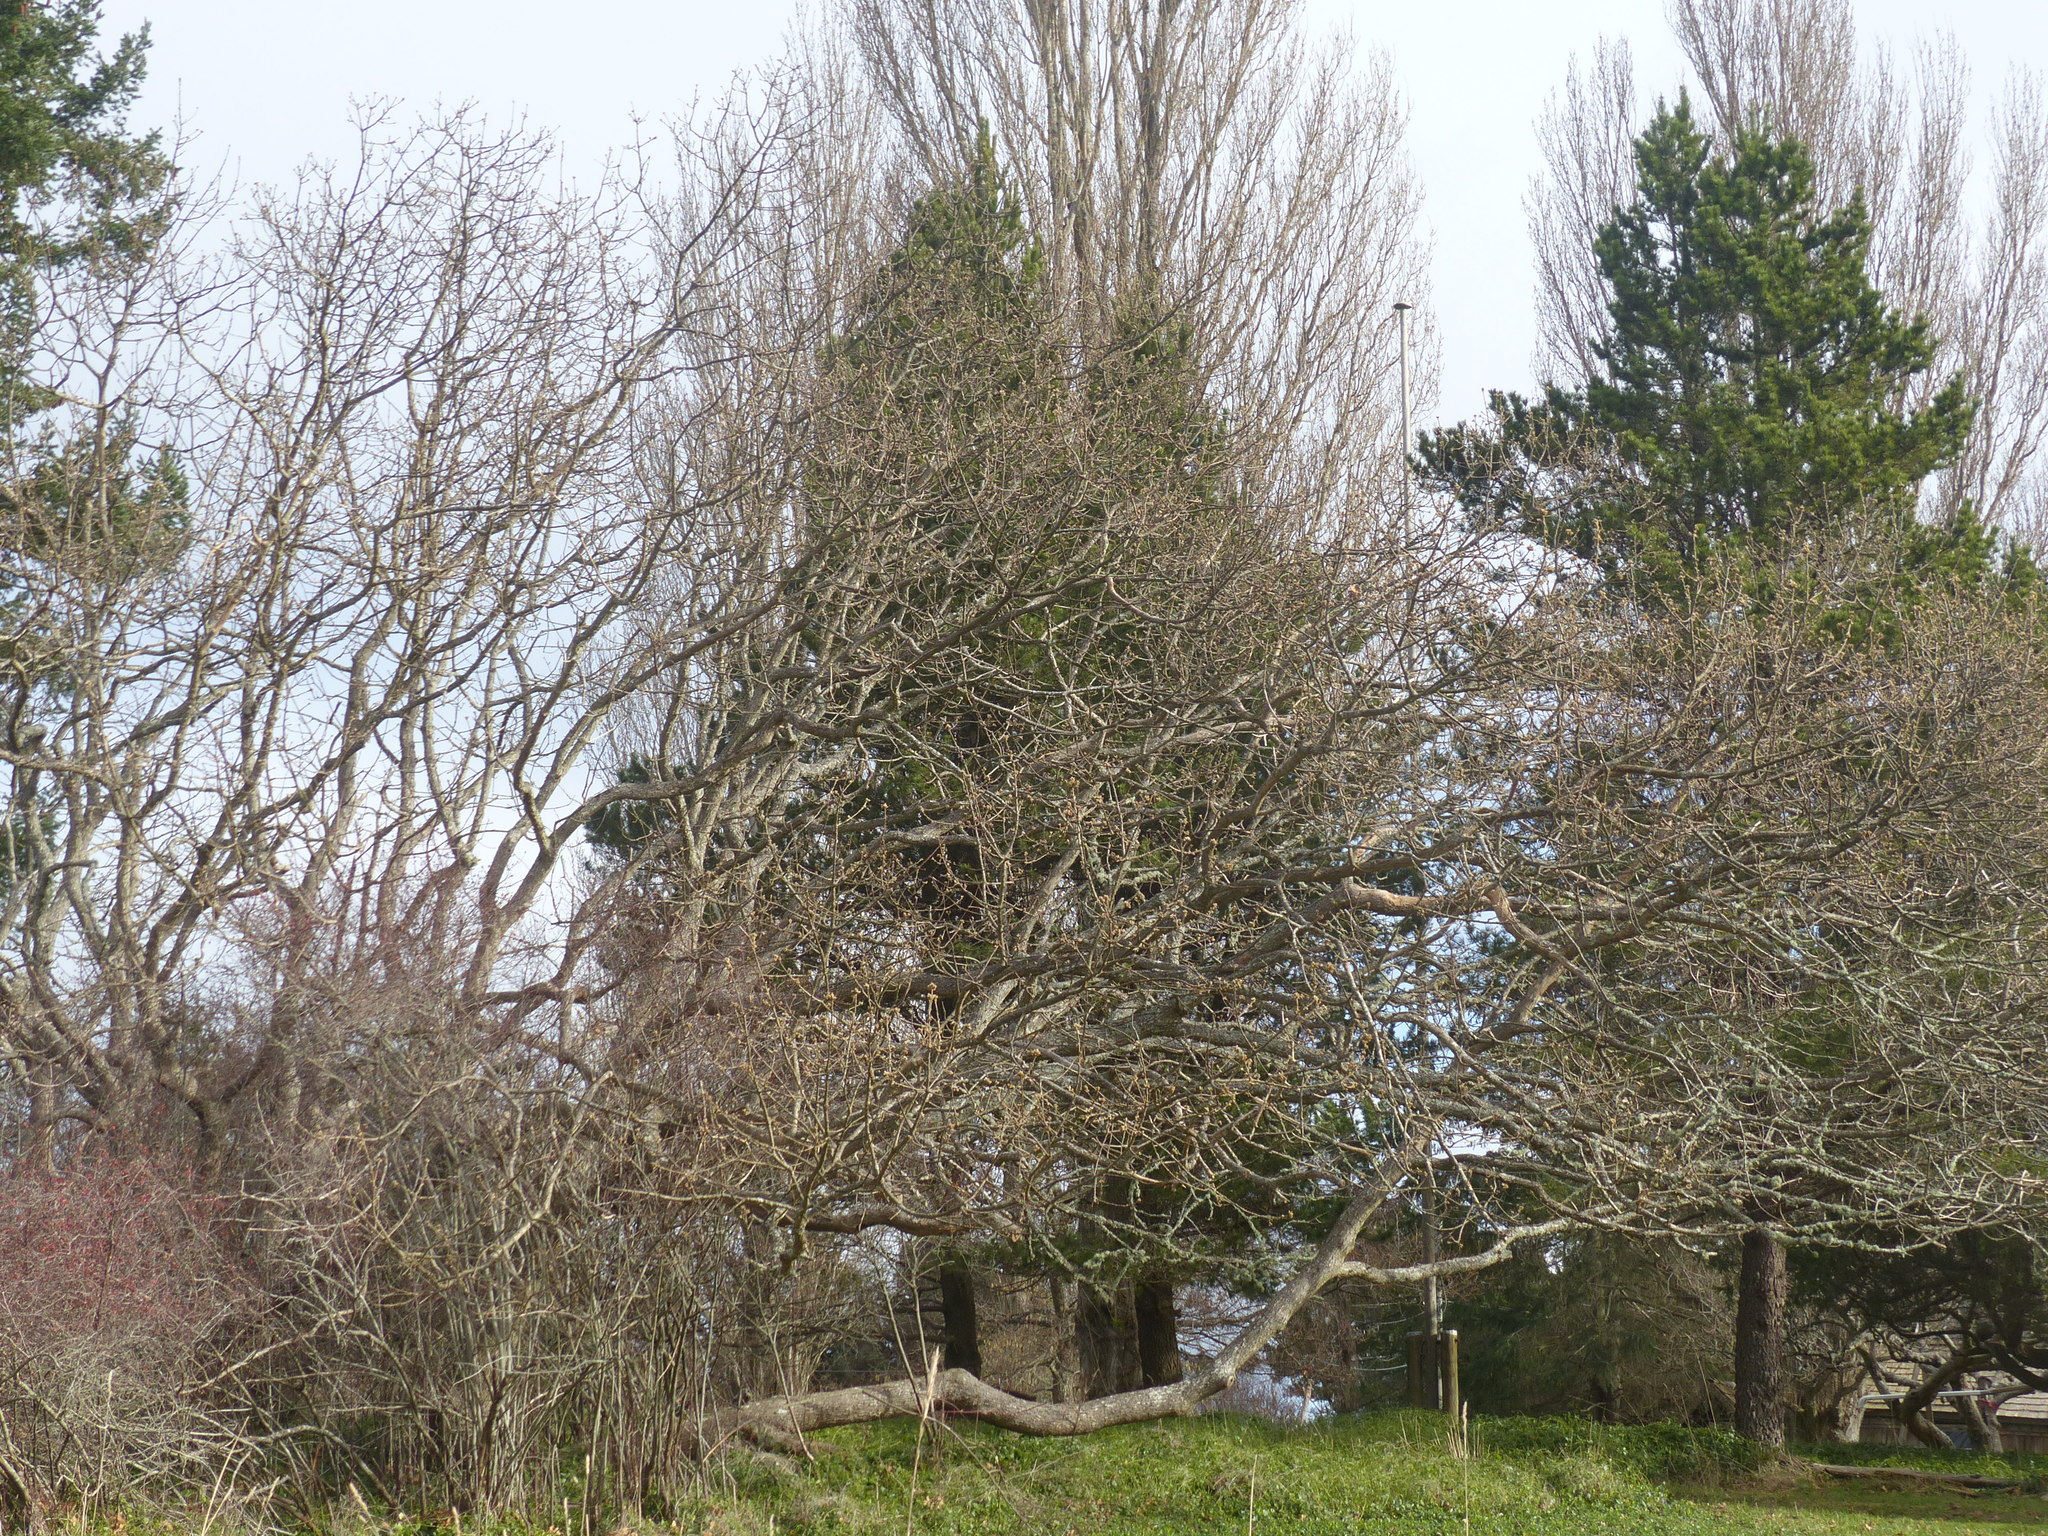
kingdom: Plantae
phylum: Tracheophyta
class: Magnoliopsida
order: Fagales
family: Fagaceae
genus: Quercus
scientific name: Quercus garryana
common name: Garry oak
